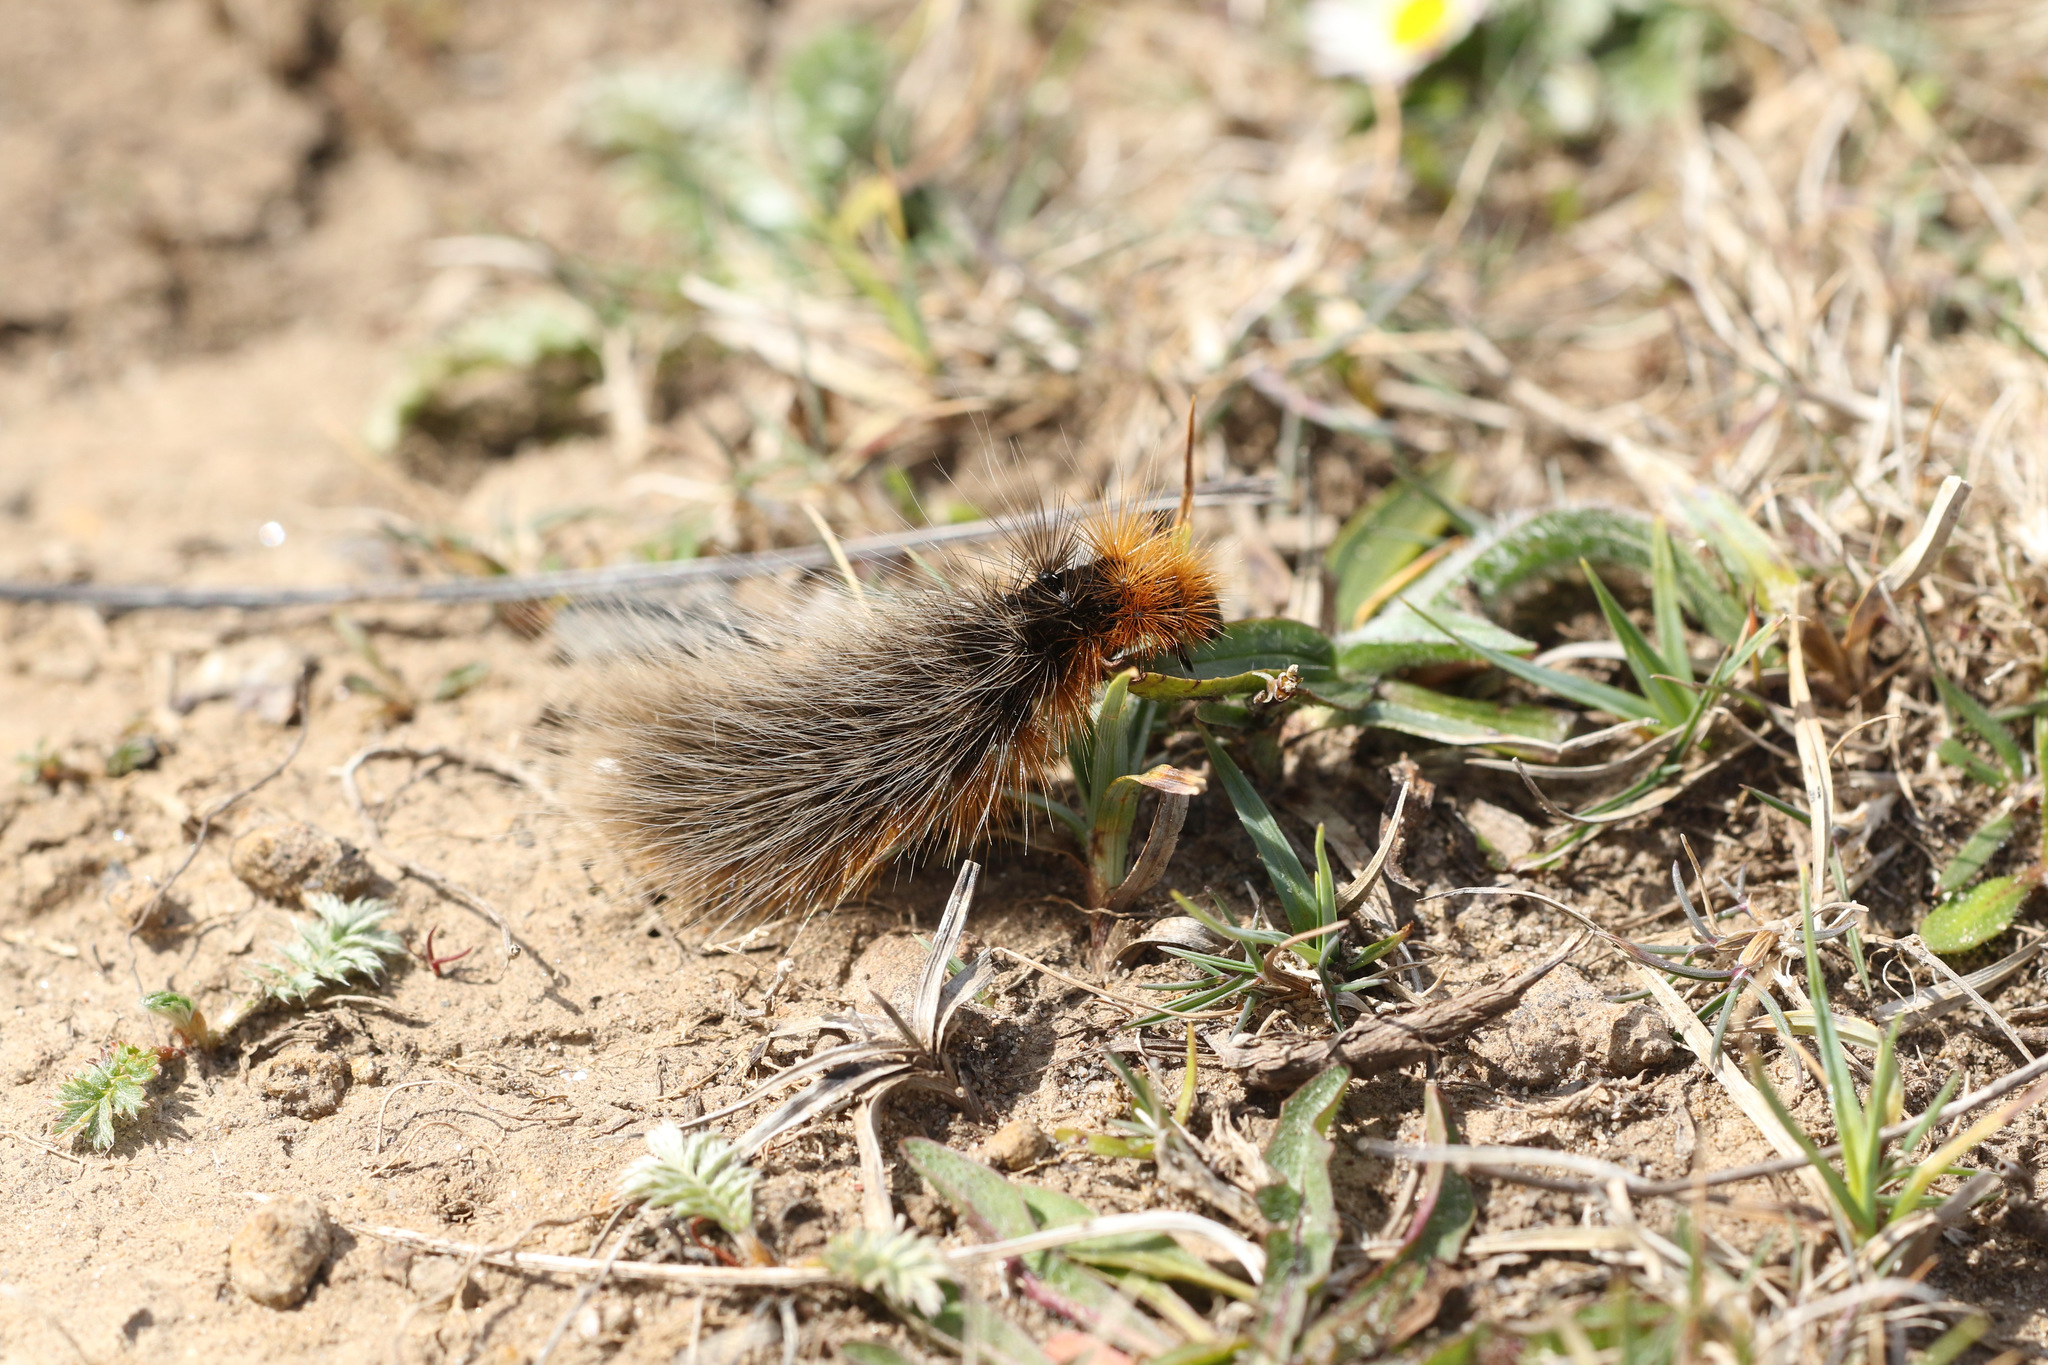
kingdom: Animalia
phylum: Arthropoda
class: Insecta
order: Lepidoptera
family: Erebidae
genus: Arctia
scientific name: Arctia caja
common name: Garden tiger
